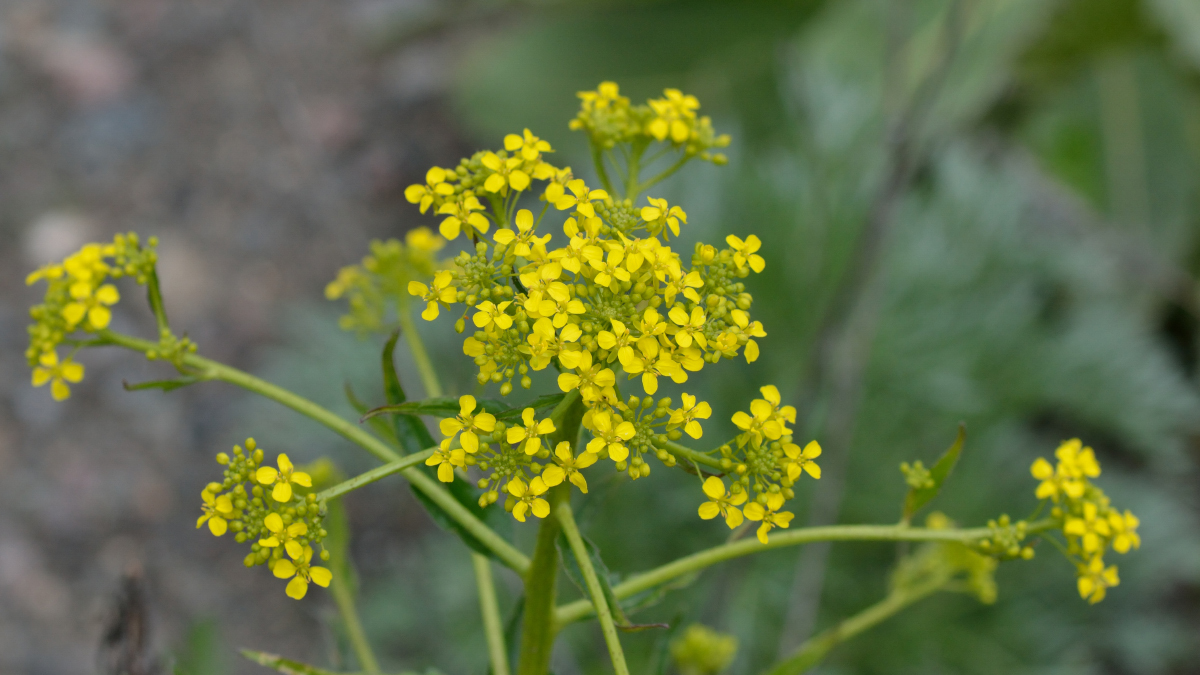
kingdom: Plantae
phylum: Tracheophyta
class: Magnoliopsida
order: Brassicales
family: Brassicaceae
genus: Bunias
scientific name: Bunias orientalis
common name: Warty-cabbage
